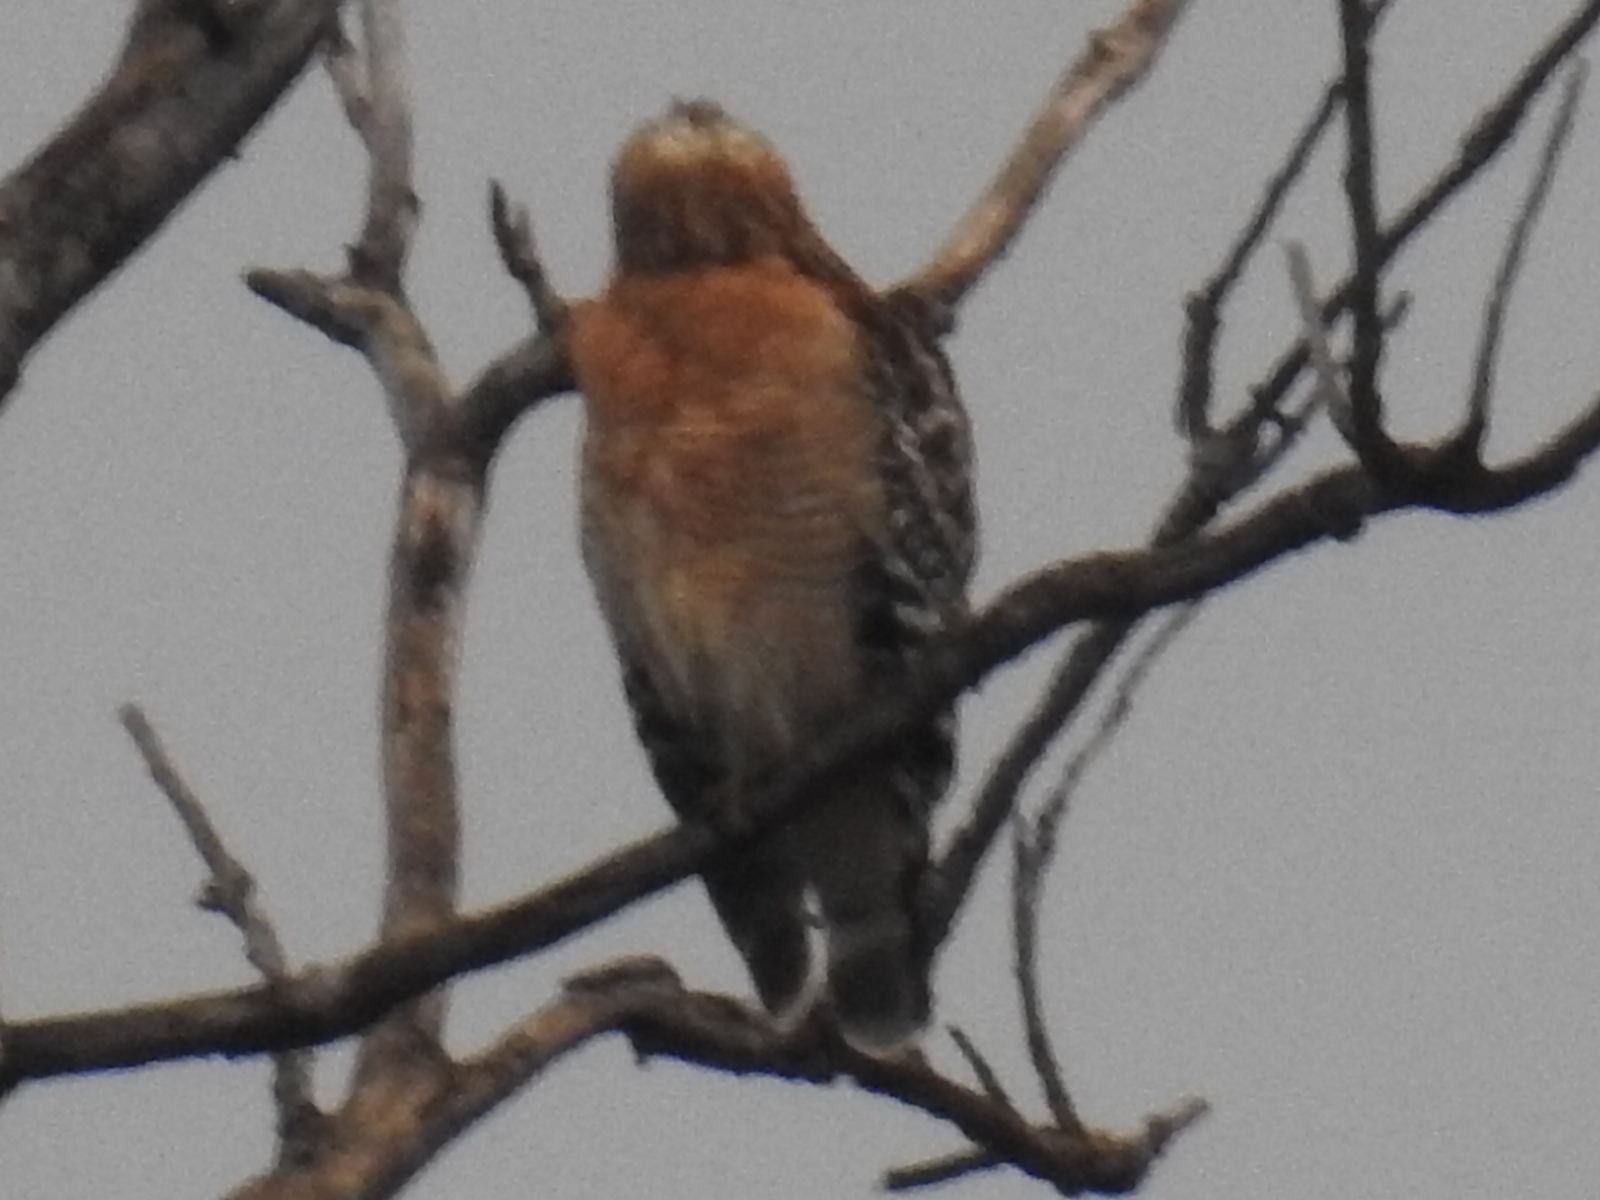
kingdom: Animalia
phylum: Chordata
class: Aves
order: Accipitriformes
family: Accipitridae
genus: Buteo
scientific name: Buteo lineatus
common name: Red-shouldered hawk
